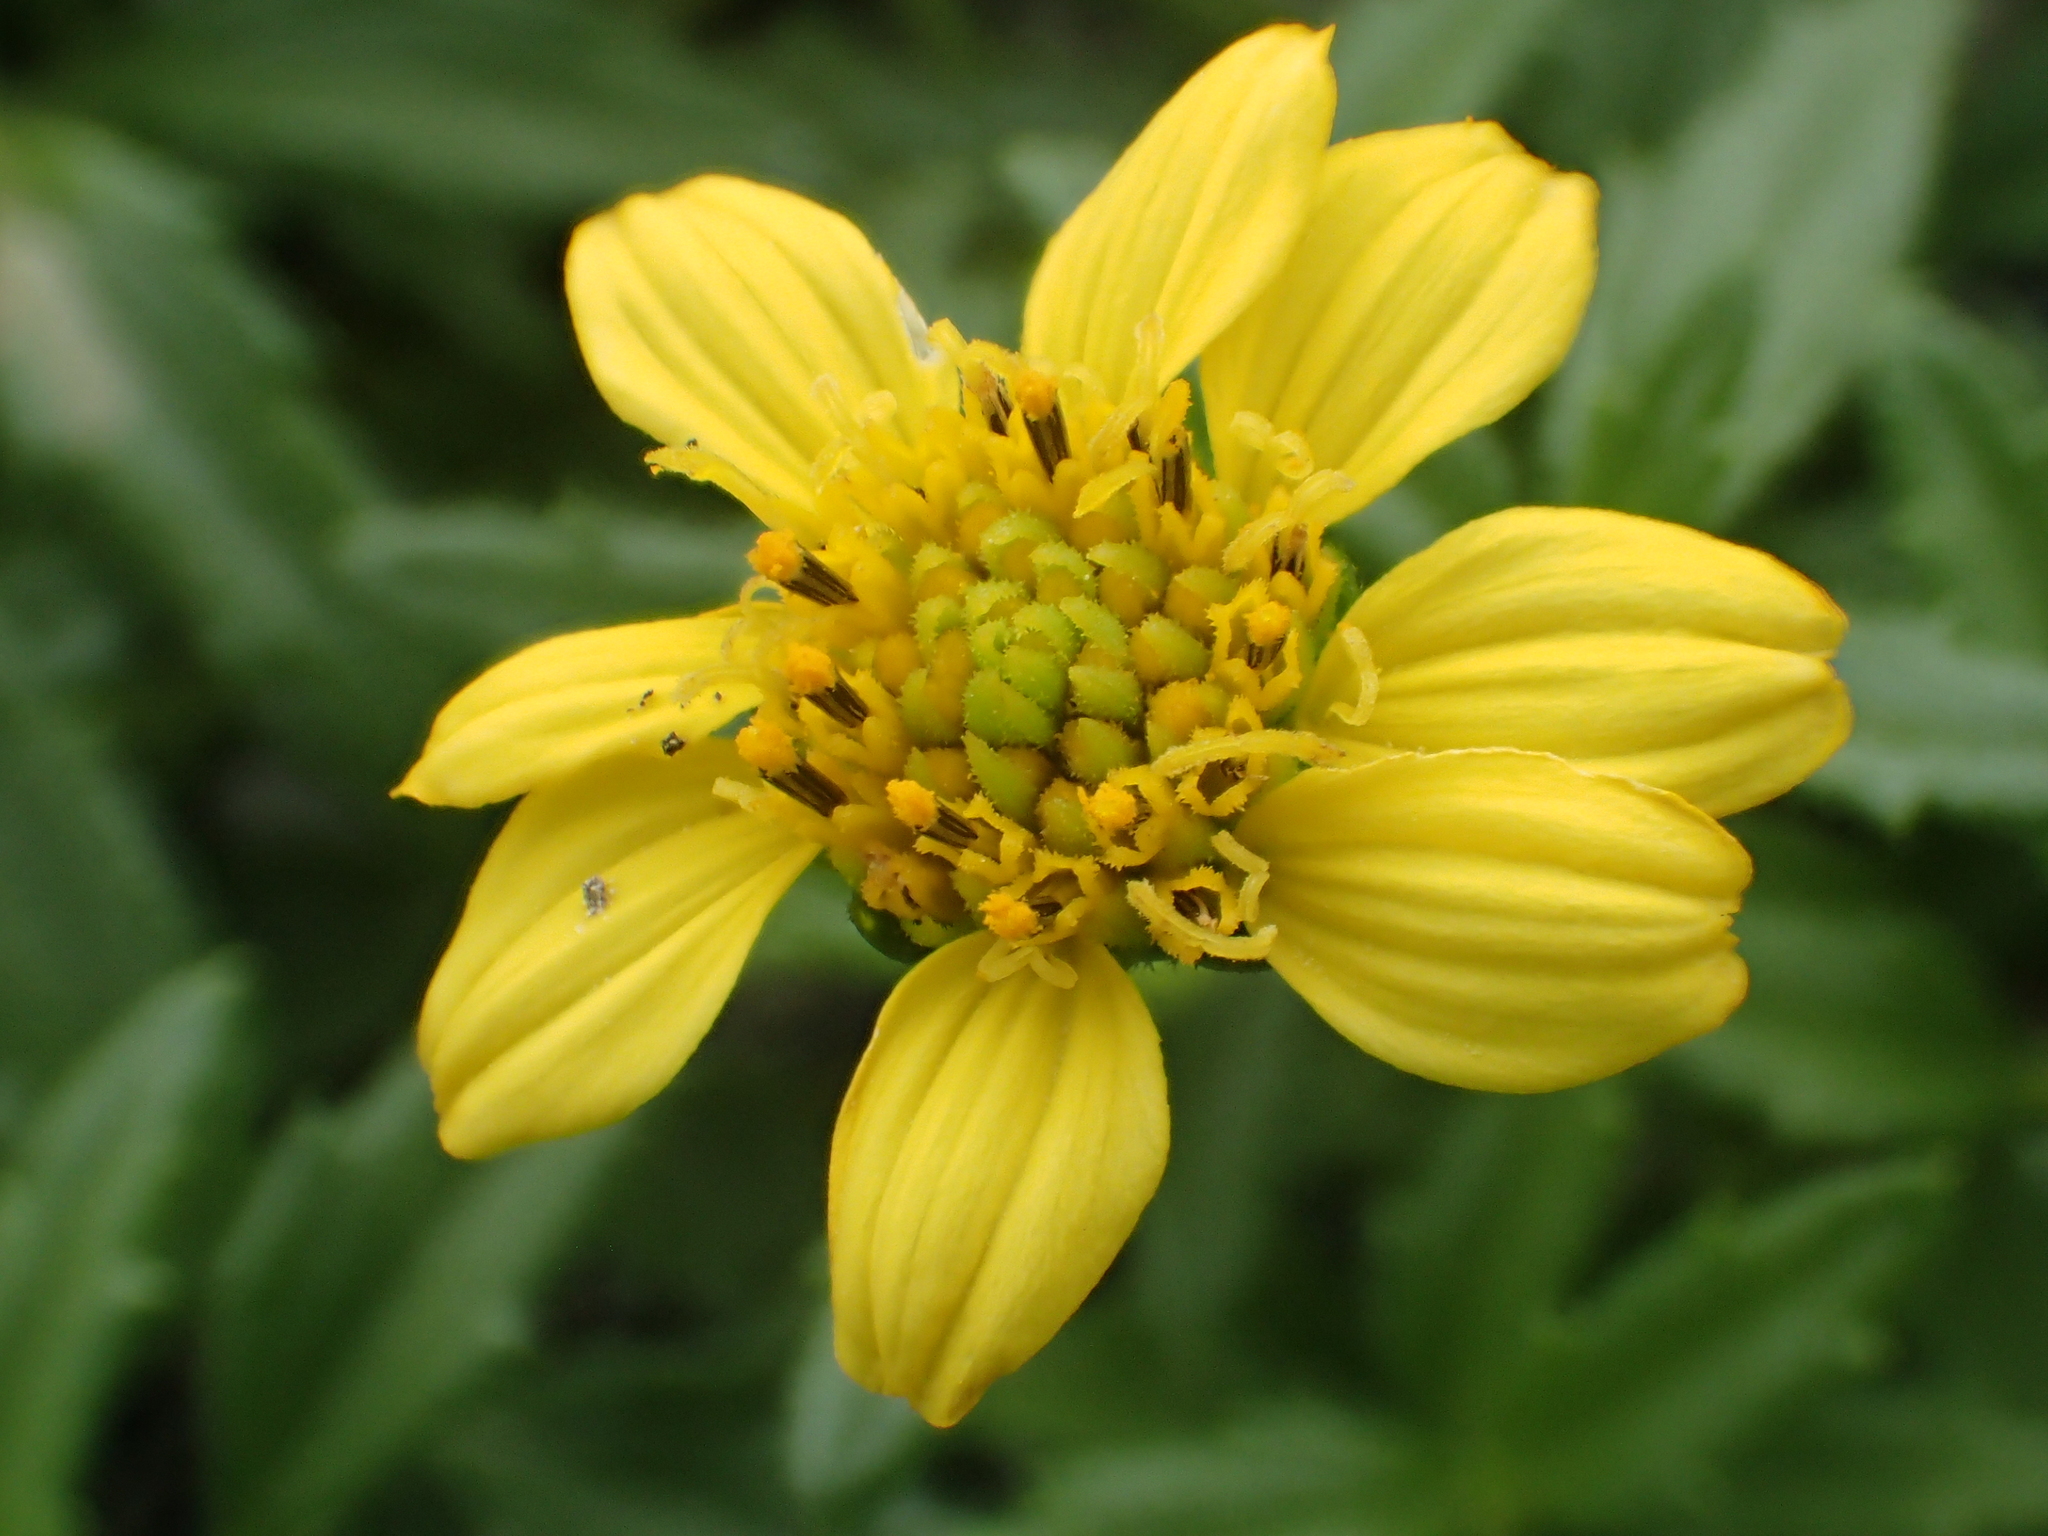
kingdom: Plantae
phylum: Tracheophyta
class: Magnoliopsida
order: Asterales
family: Asteraceae
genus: Melanthera
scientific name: Melanthera prostrata
